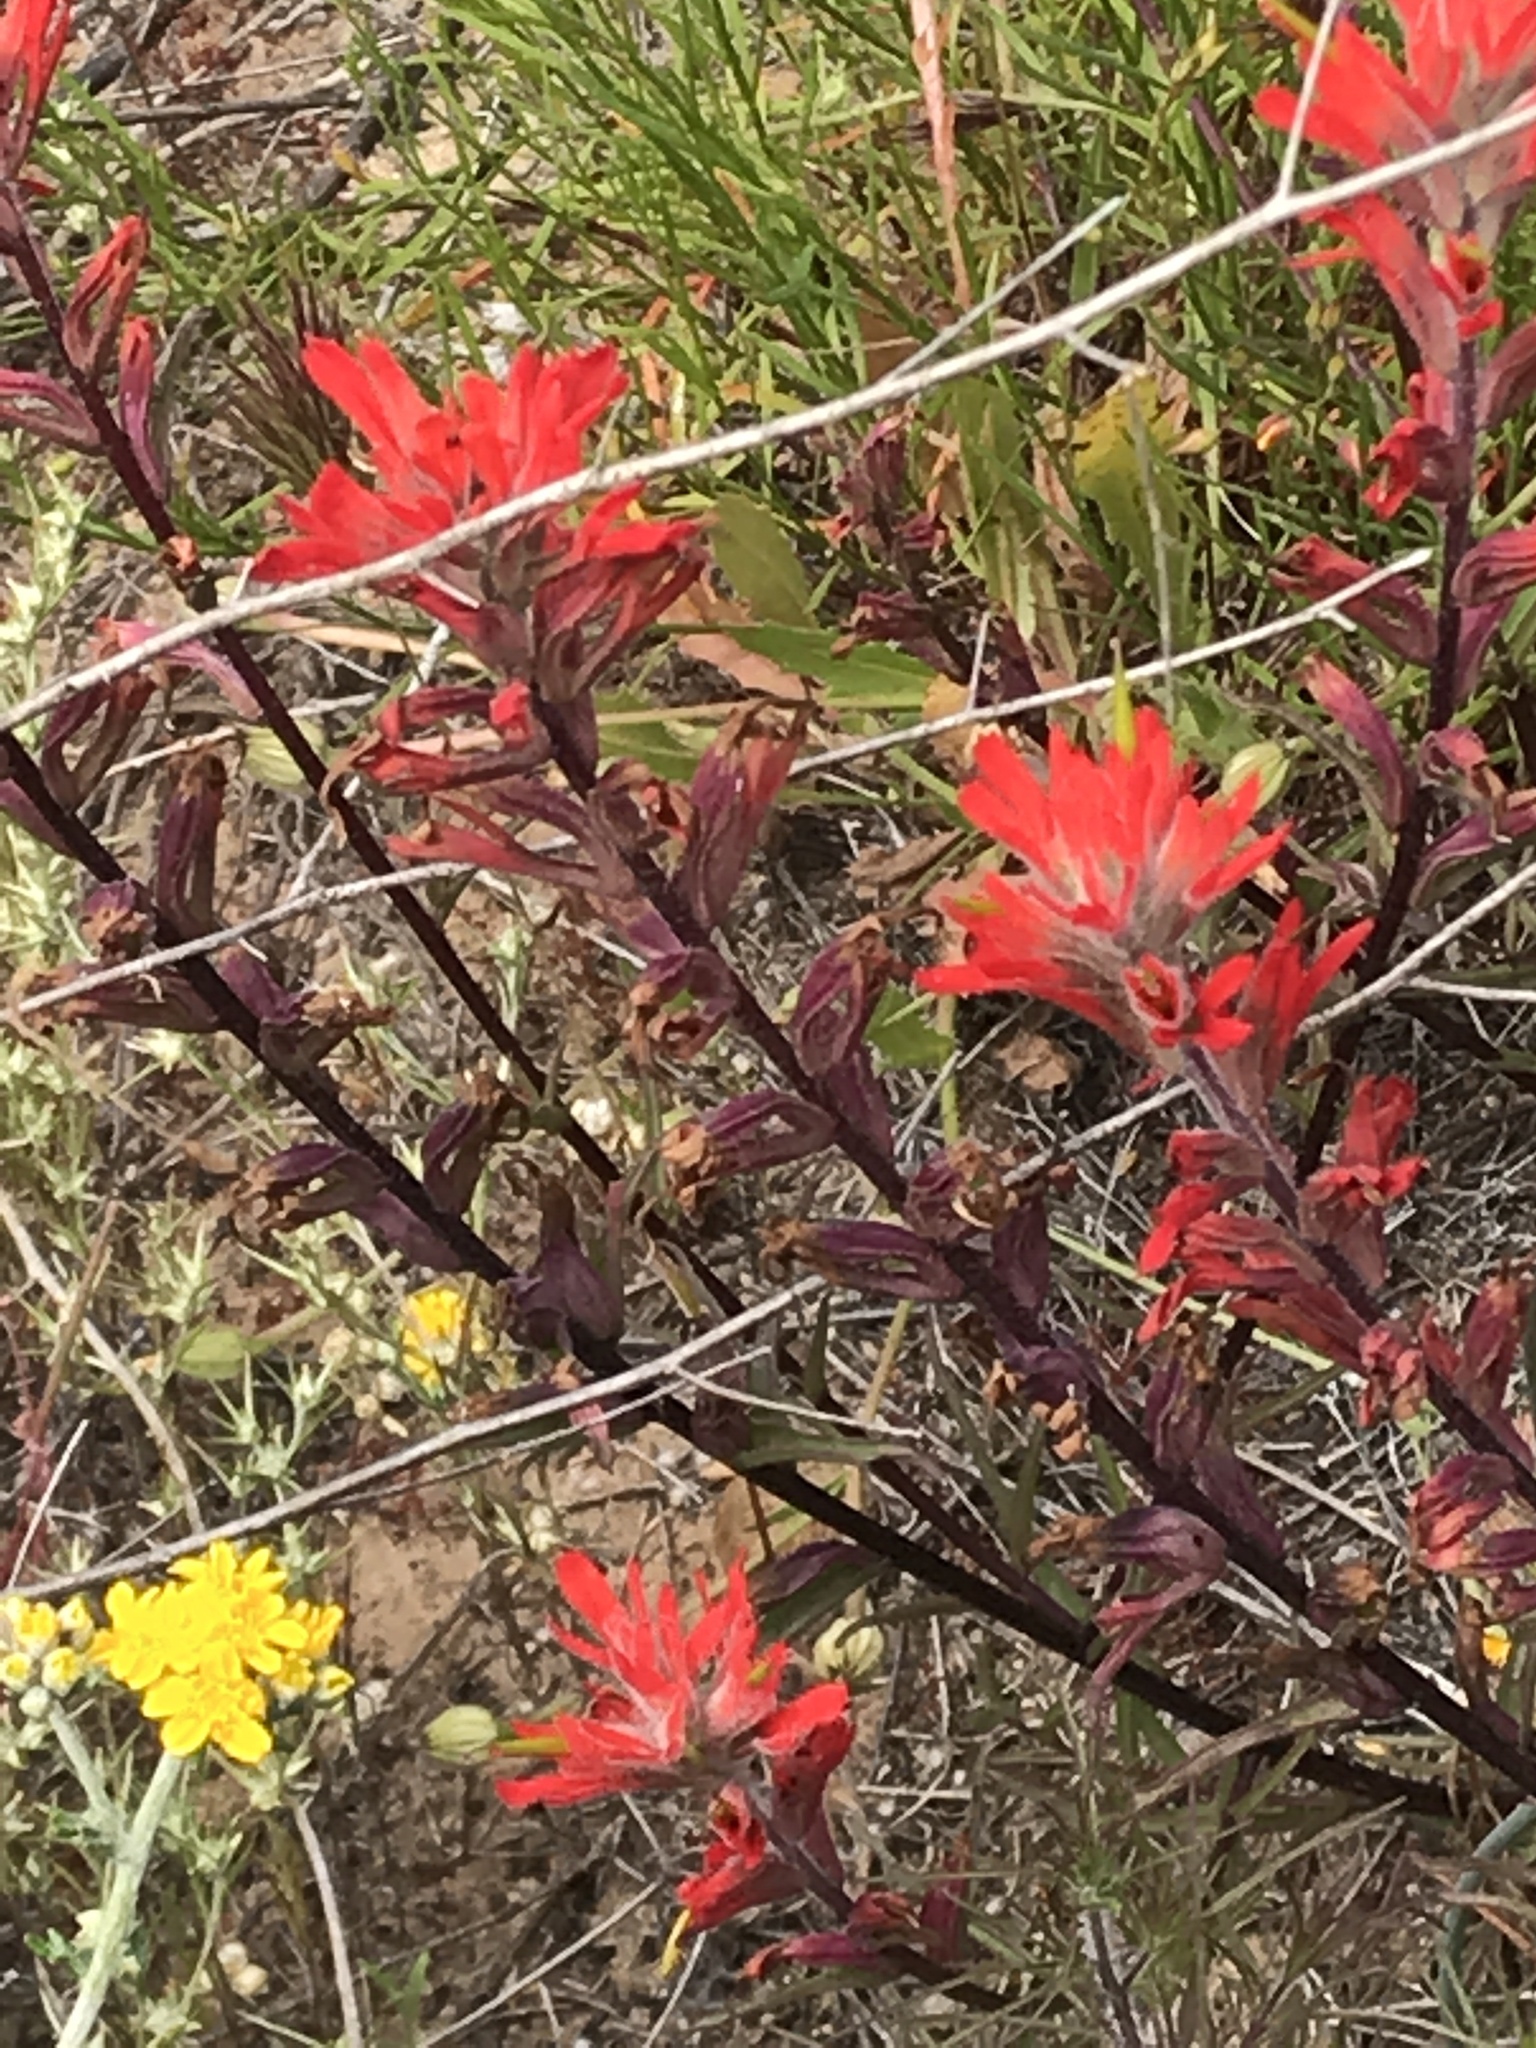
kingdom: Plantae
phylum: Tracheophyta
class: Magnoliopsida
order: Lamiales
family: Orobanchaceae
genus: Castilleja
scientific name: Castilleja affinis
